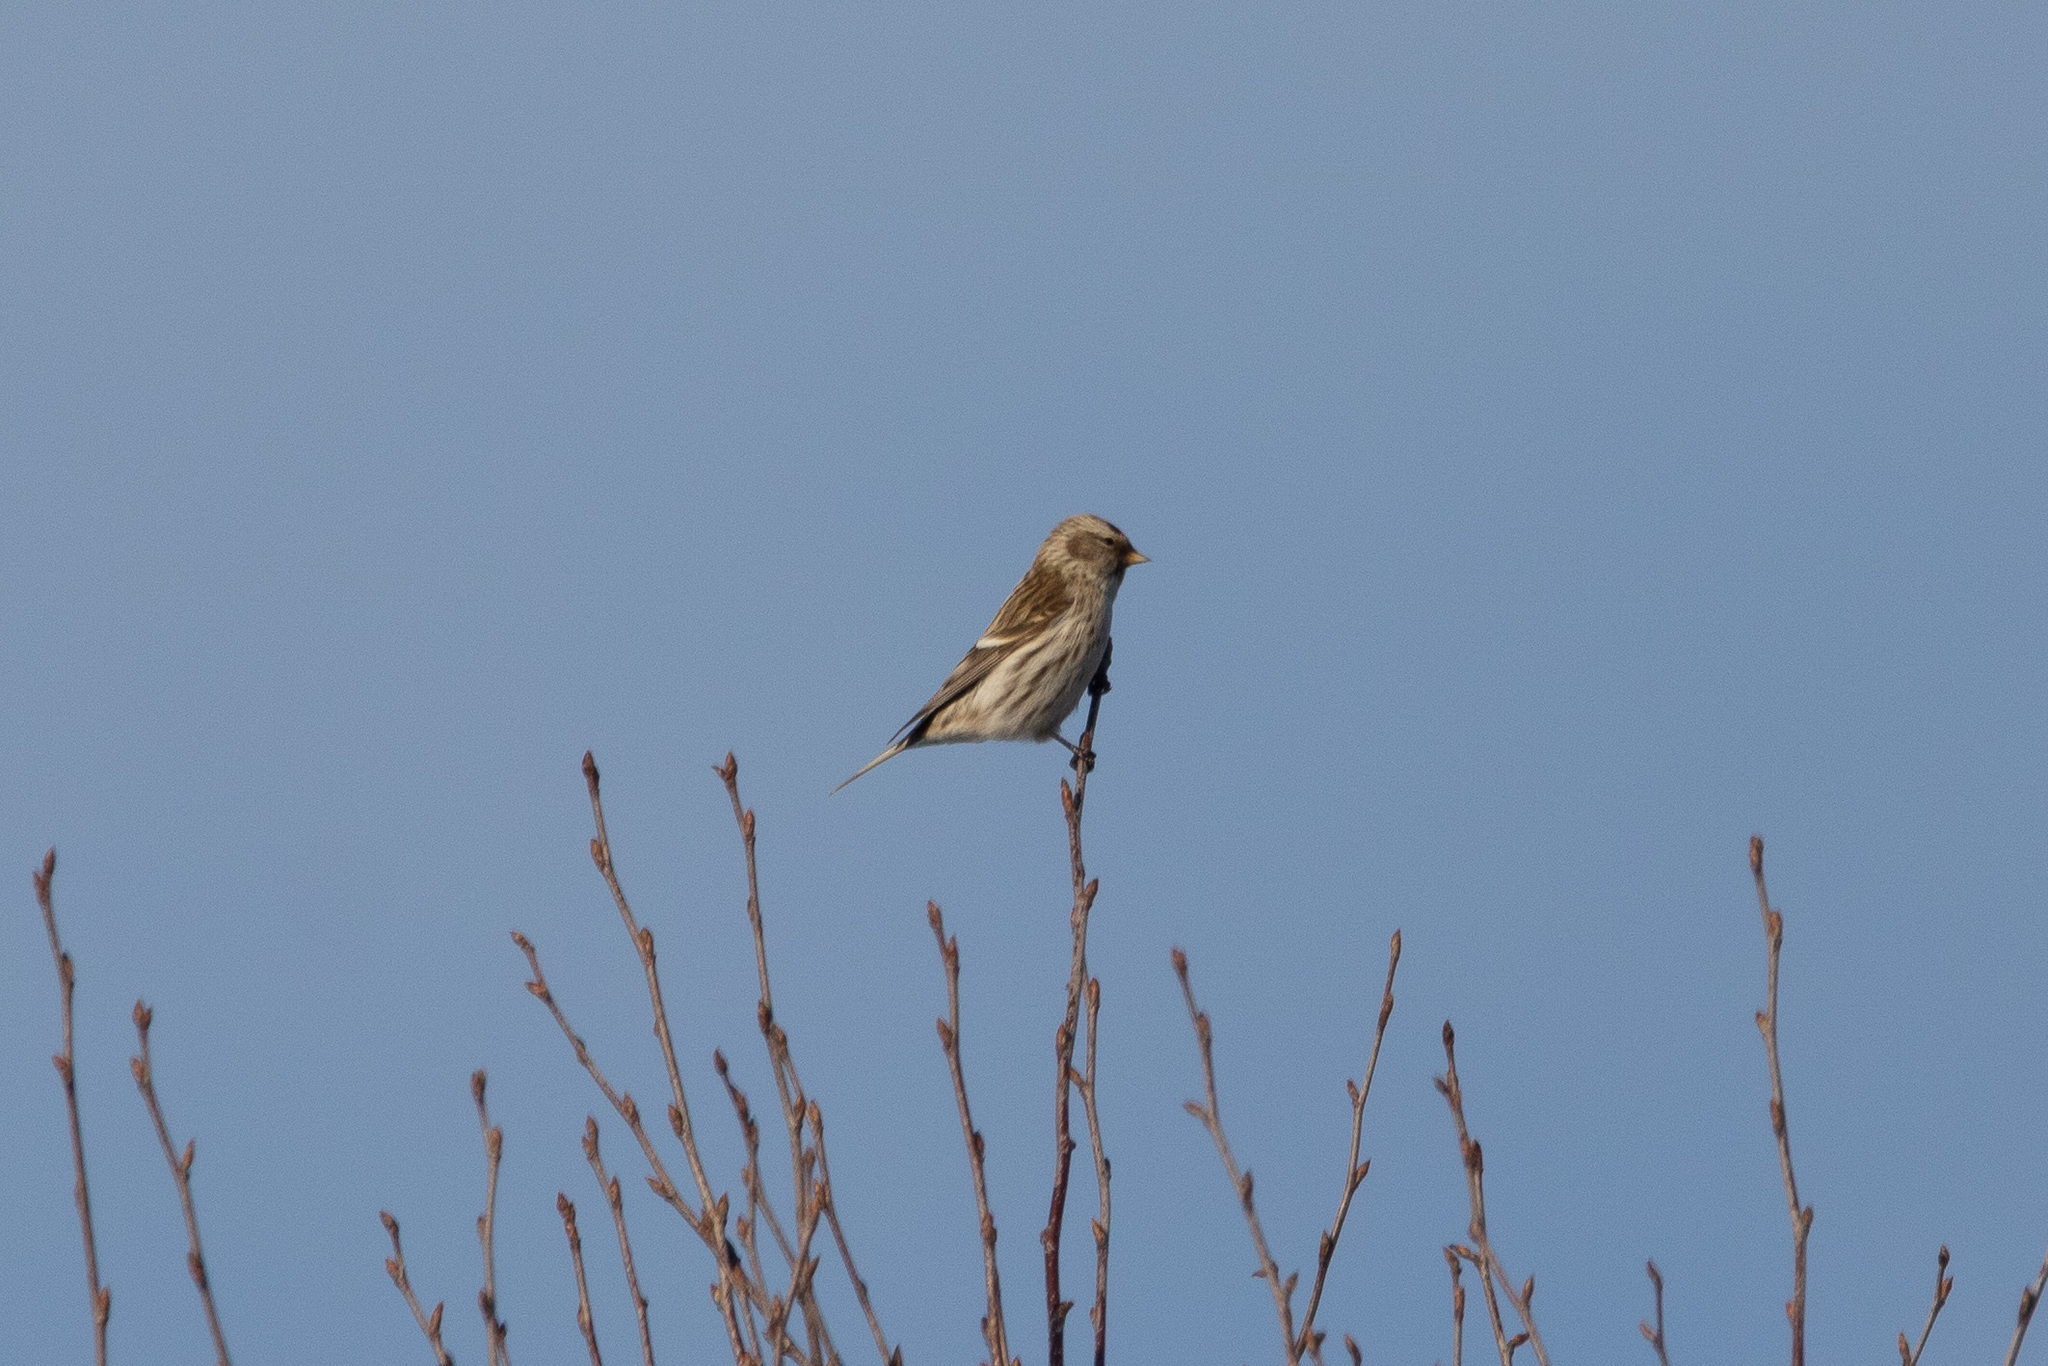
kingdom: Animalia
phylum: Chordata
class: Aves
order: Passeriformes
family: Fringillidae
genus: Acanthis
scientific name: Acanthis flammea
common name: Common redpoll
